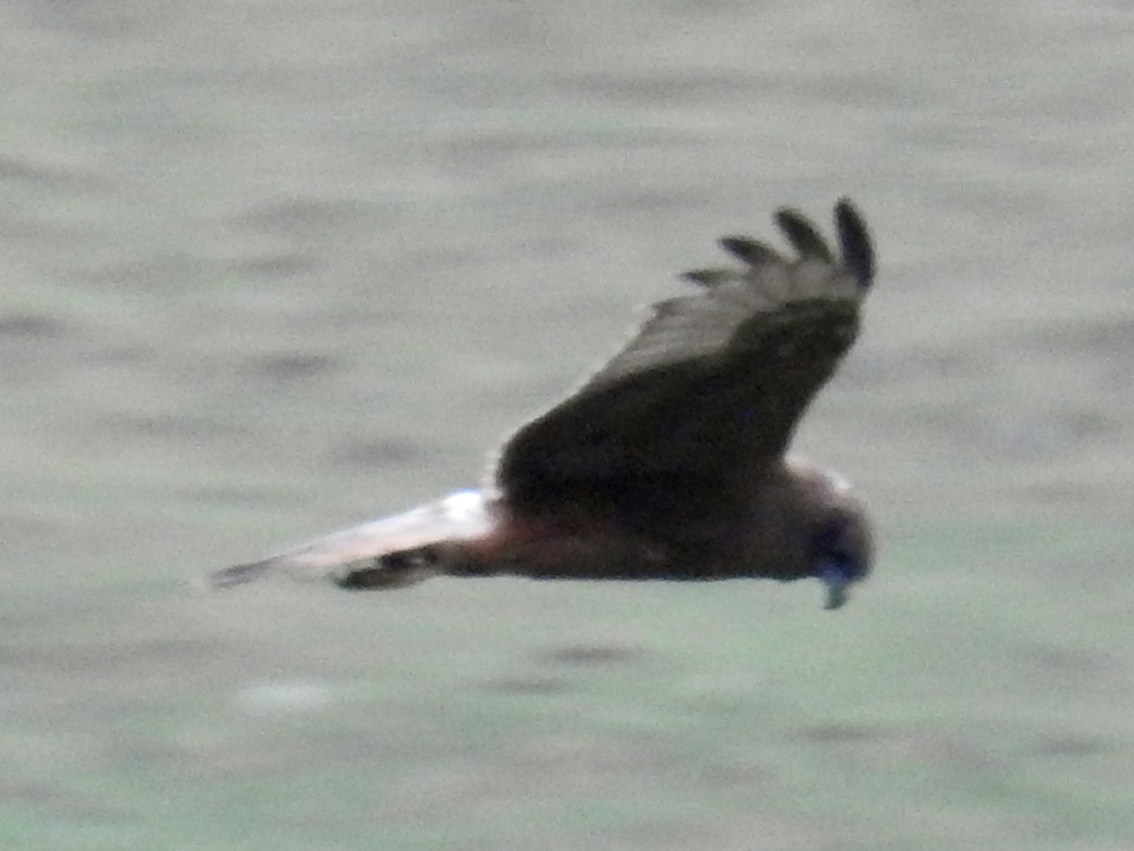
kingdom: Animalia
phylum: Chordata
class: Aves
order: Accipitriformes
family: Accipitridae
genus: Circus
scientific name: Circus approximans
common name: Swamp harrier
